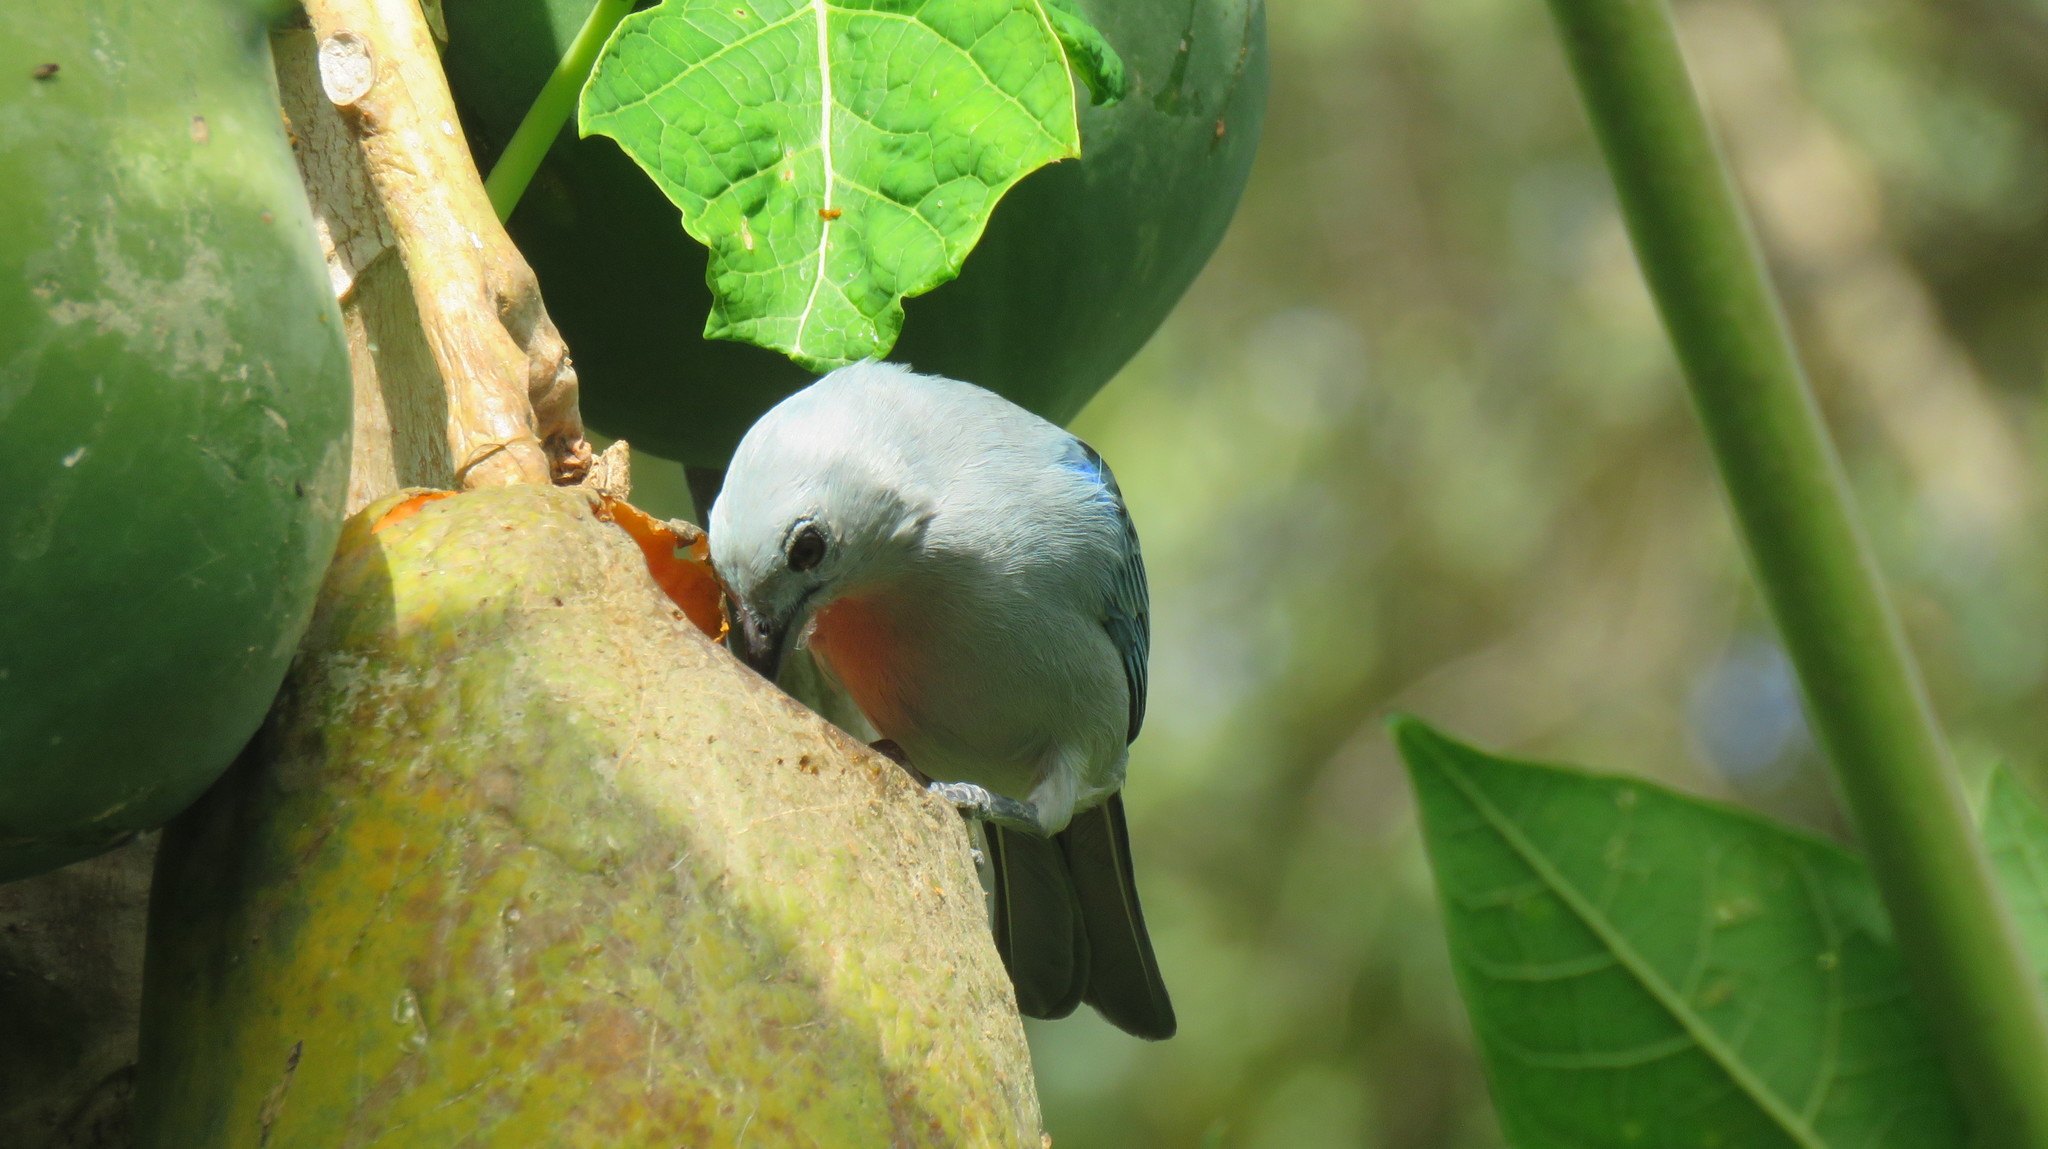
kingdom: Animalia
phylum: Chordata
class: Aves
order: Passeriformes
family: Thraupidae
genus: Thraupis
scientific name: Thraupis episcopus
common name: Blue-grey tanager
